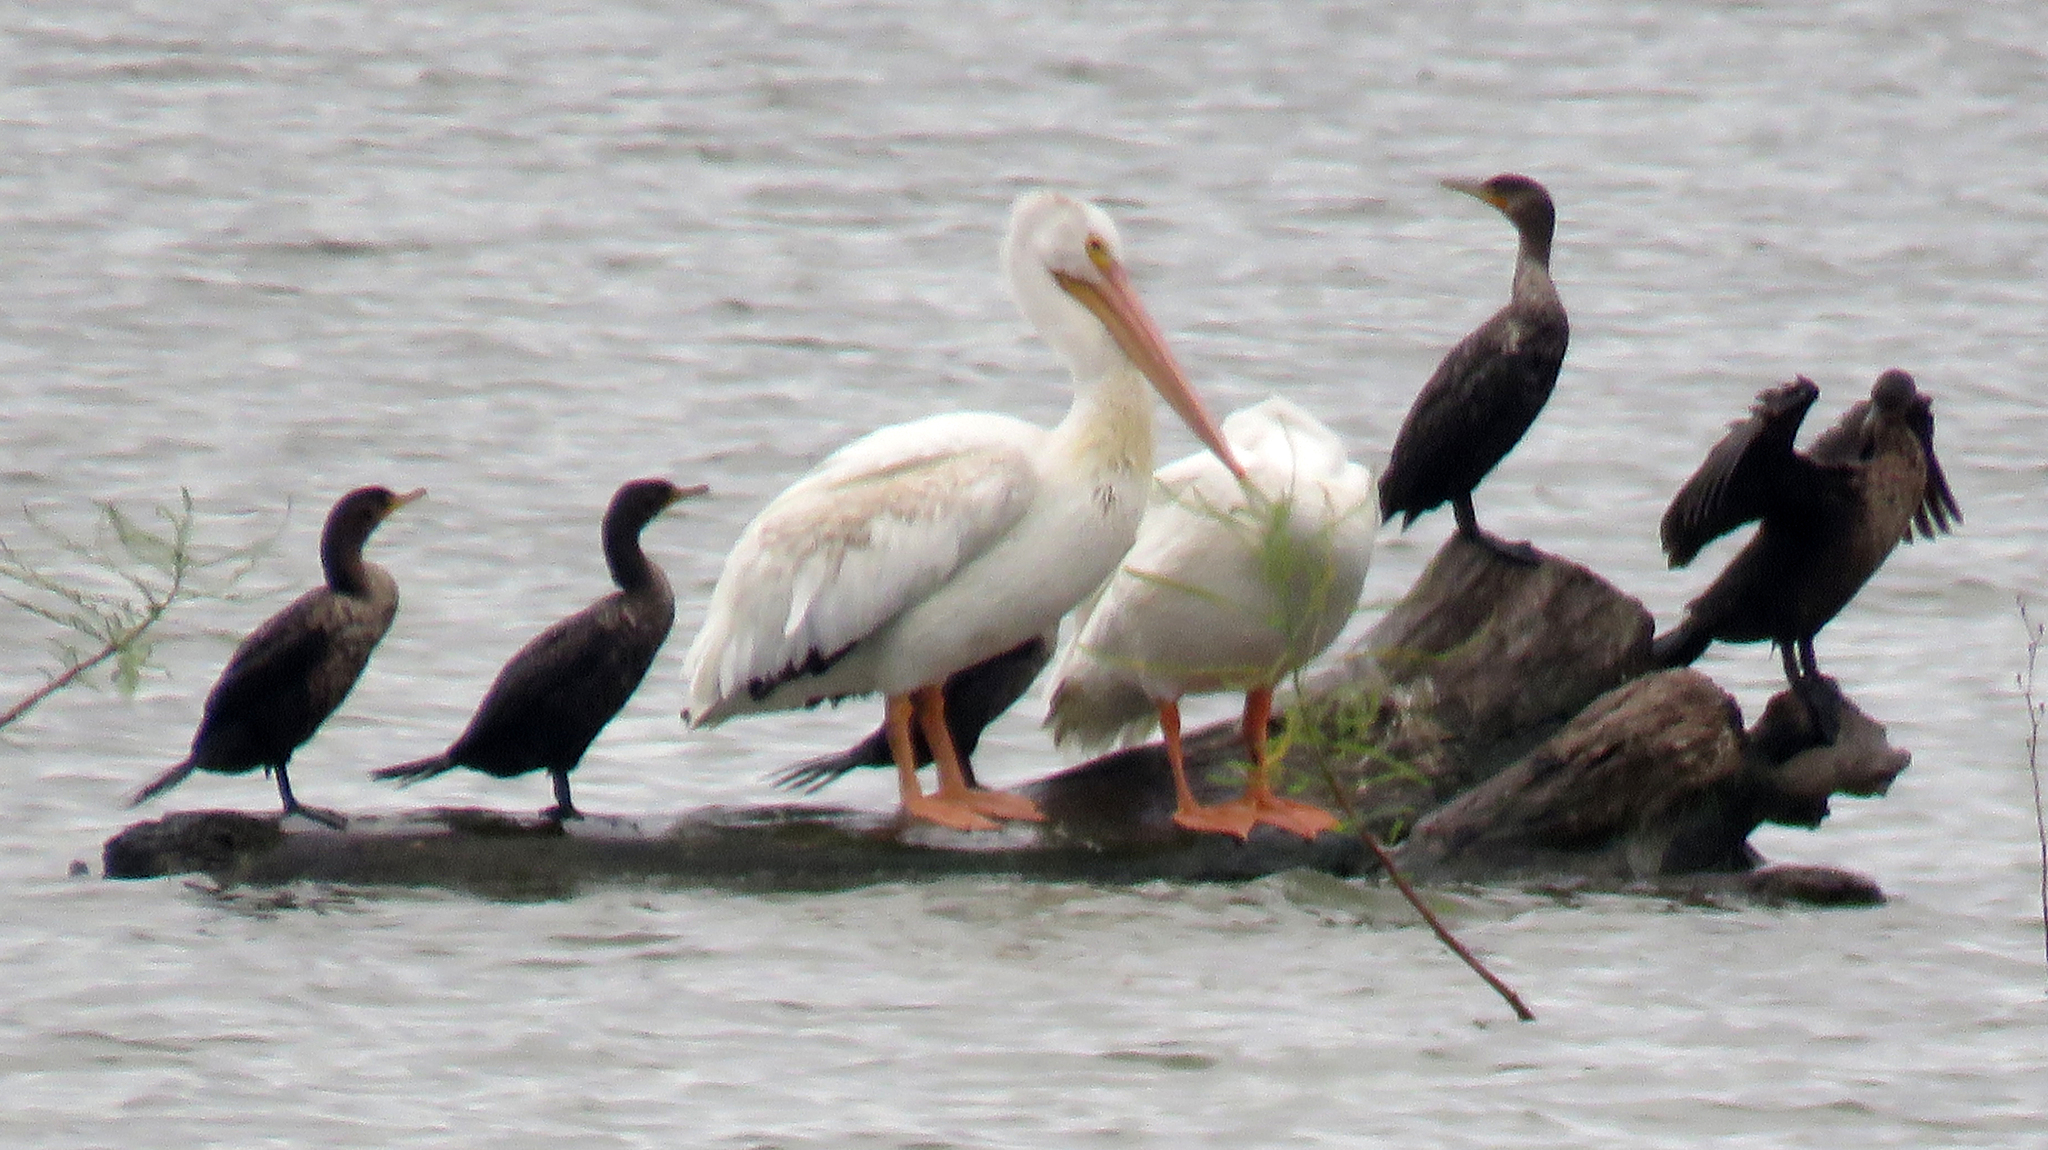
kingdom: Animalia
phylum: Chordata
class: Aves
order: Pelecaniformes
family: Pelecanidae
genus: Pelecanus
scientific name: Pelecanus erythrorhynchos
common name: American white pelican
